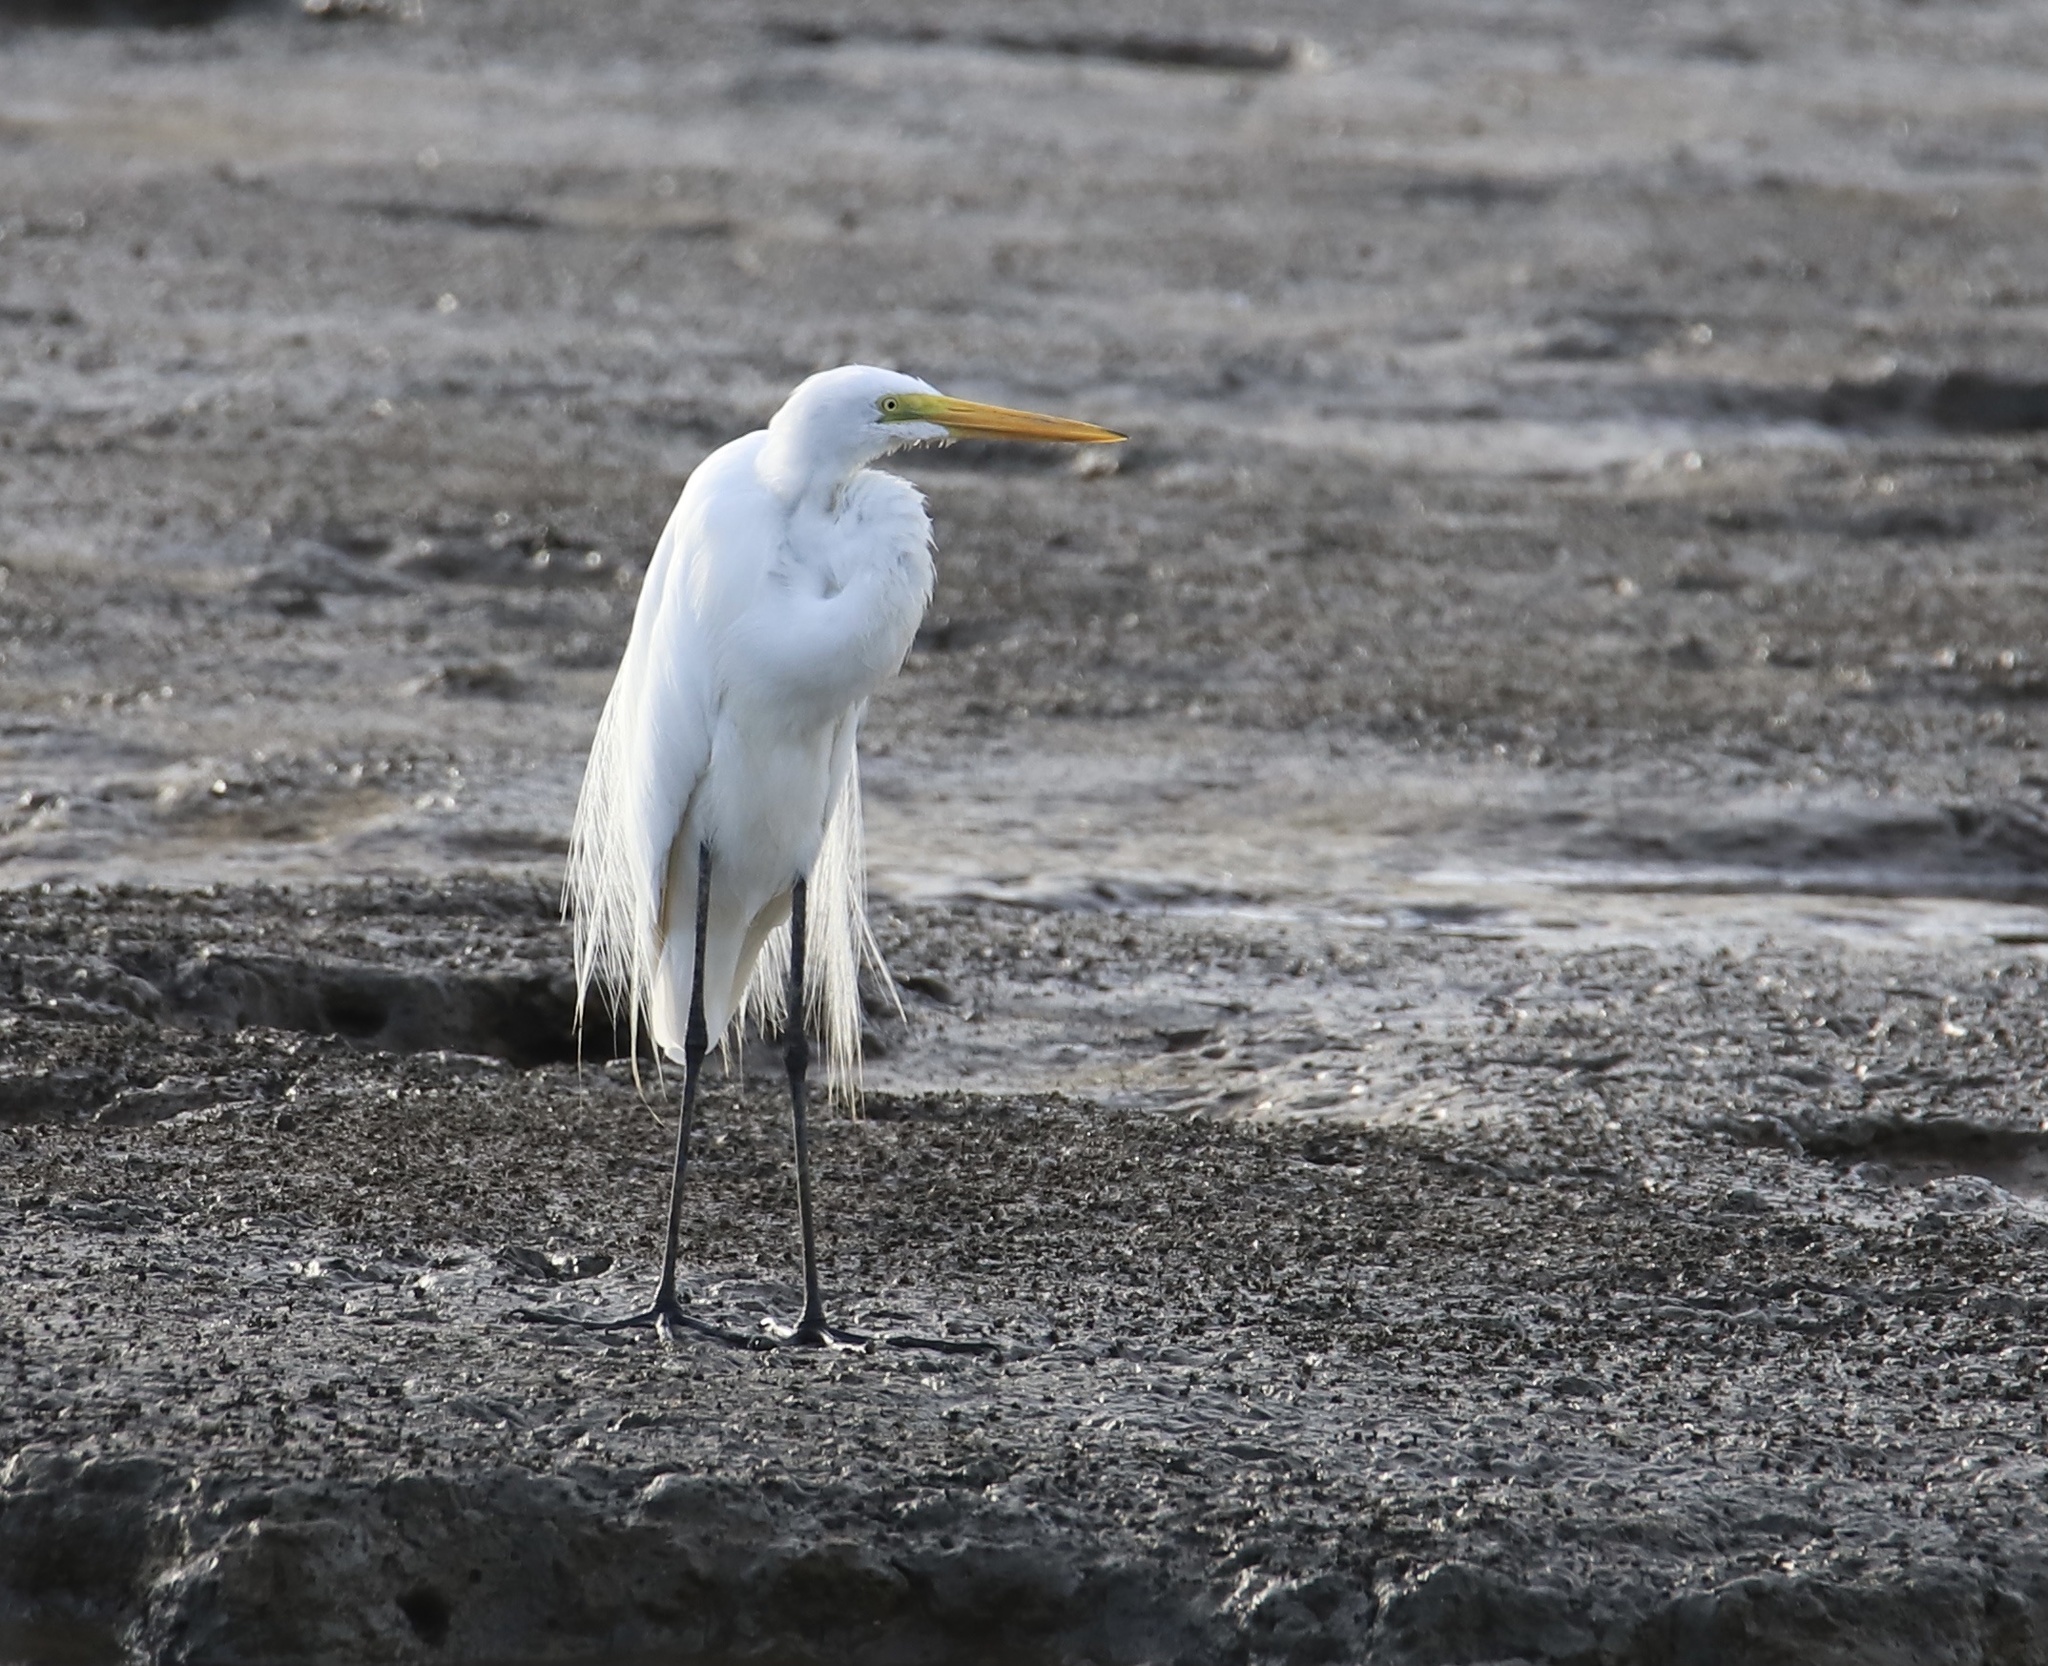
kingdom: Animalia
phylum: Chordata
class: Aves
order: Pelecaniformes
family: Ardeidae
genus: Ardea
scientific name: Ardea alba
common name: Great egret
